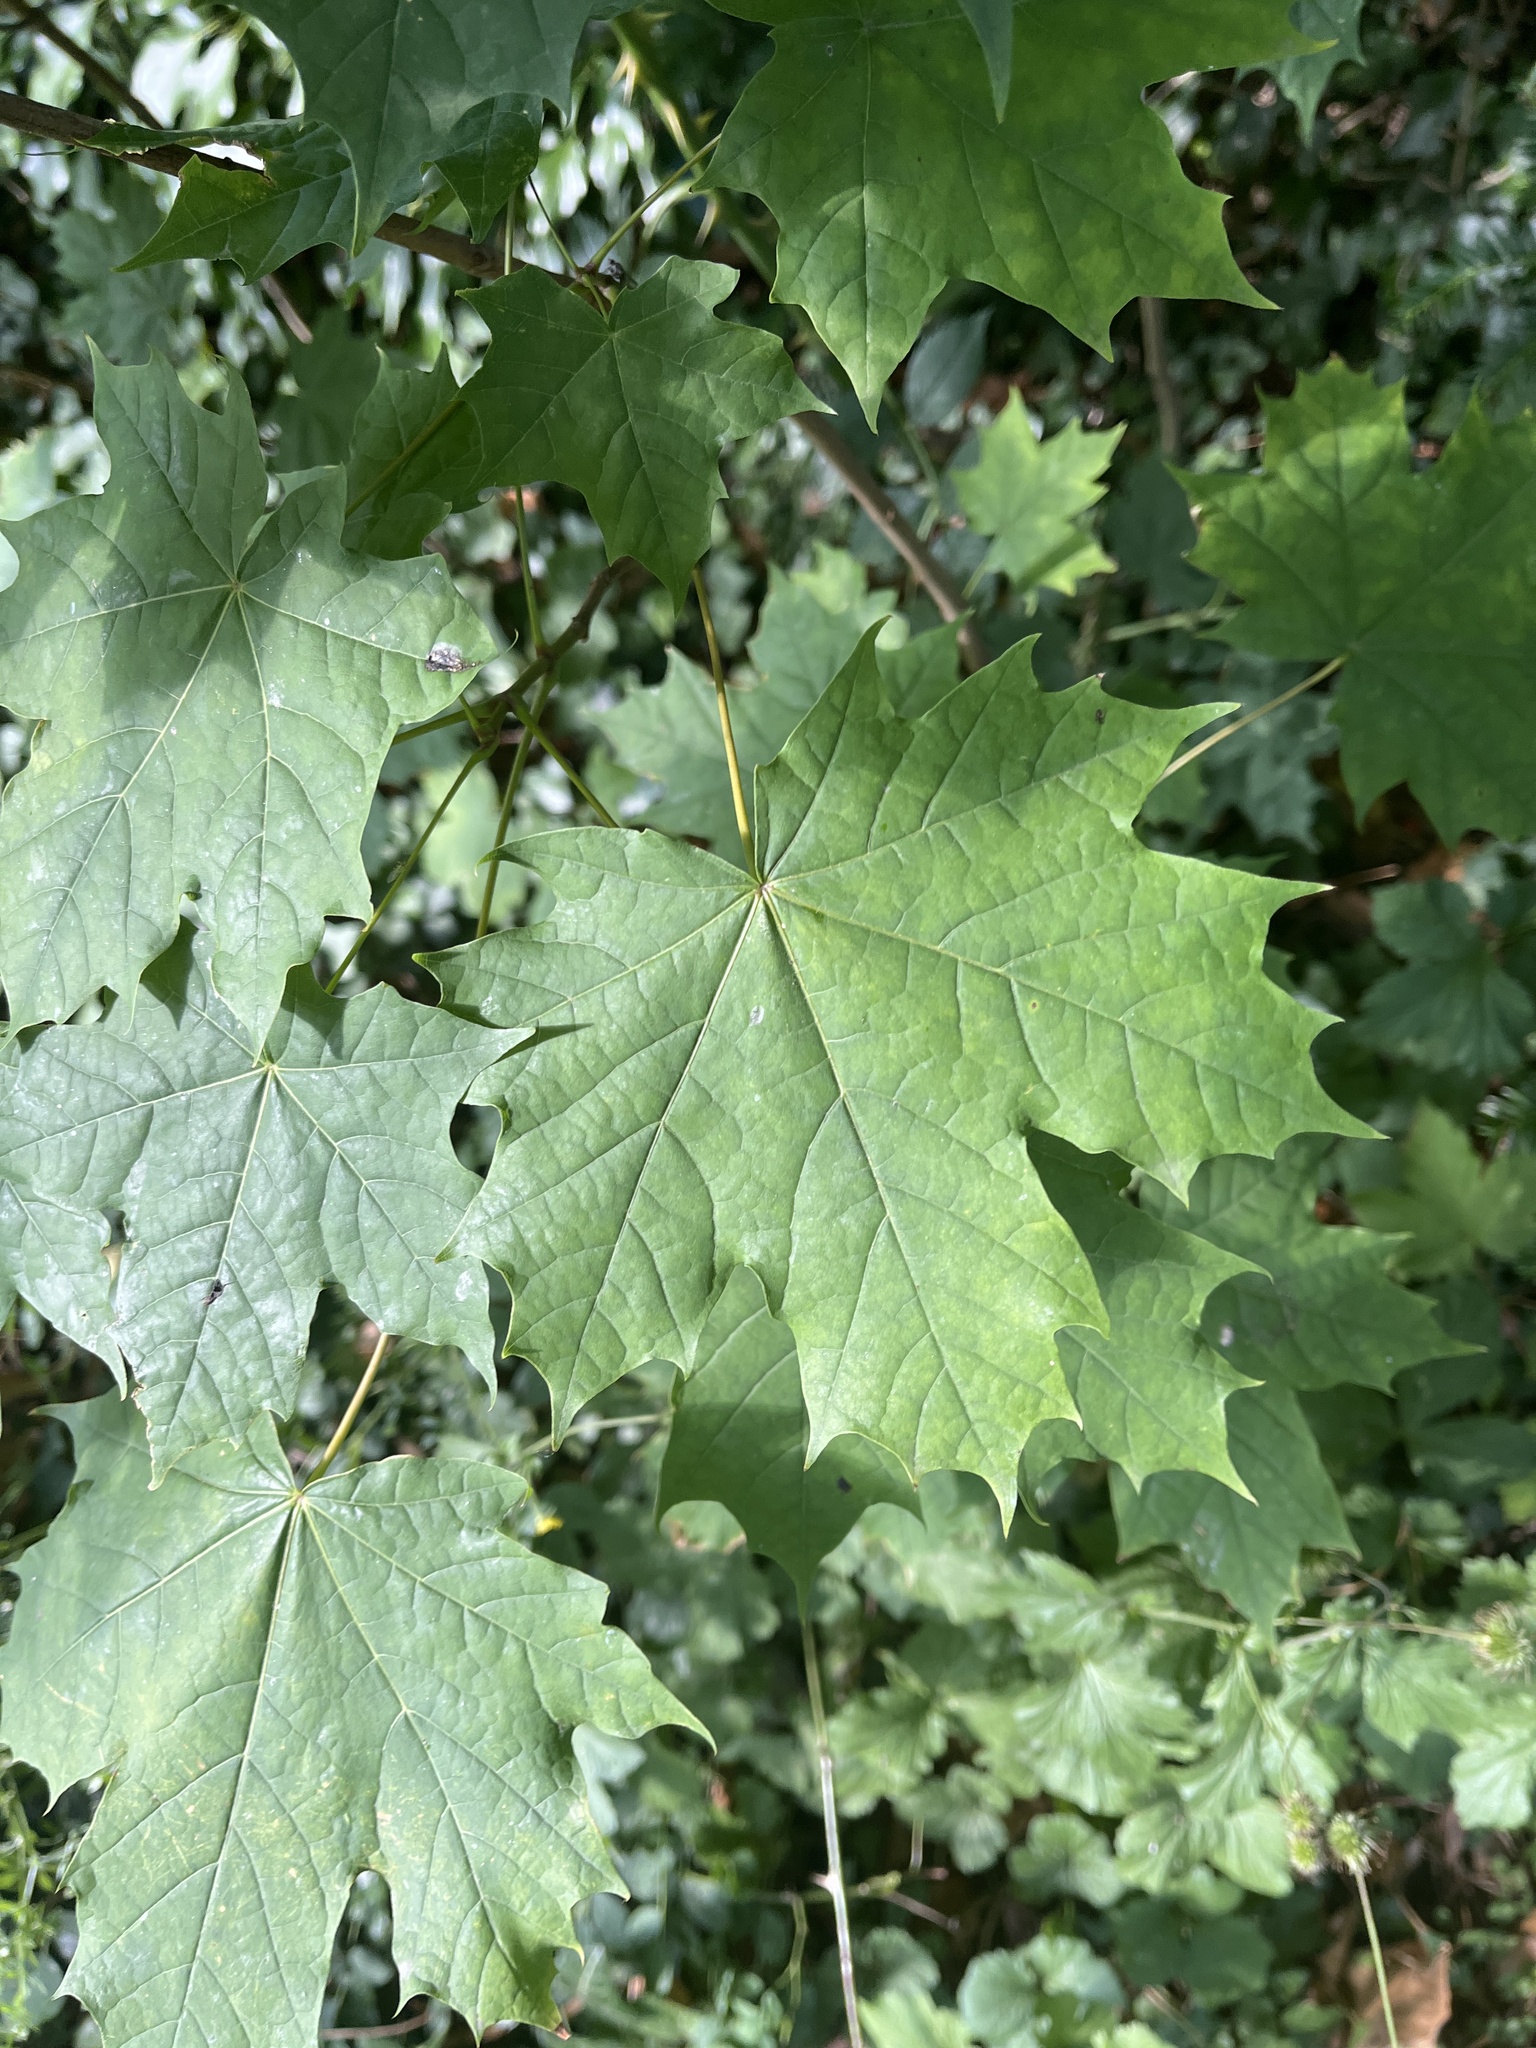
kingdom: Plantae
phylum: Tracheophyta
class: Magnoliopsida
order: Sapindales
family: Sapindaceae
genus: Acer
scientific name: Acer platanoides
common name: Norway maple
